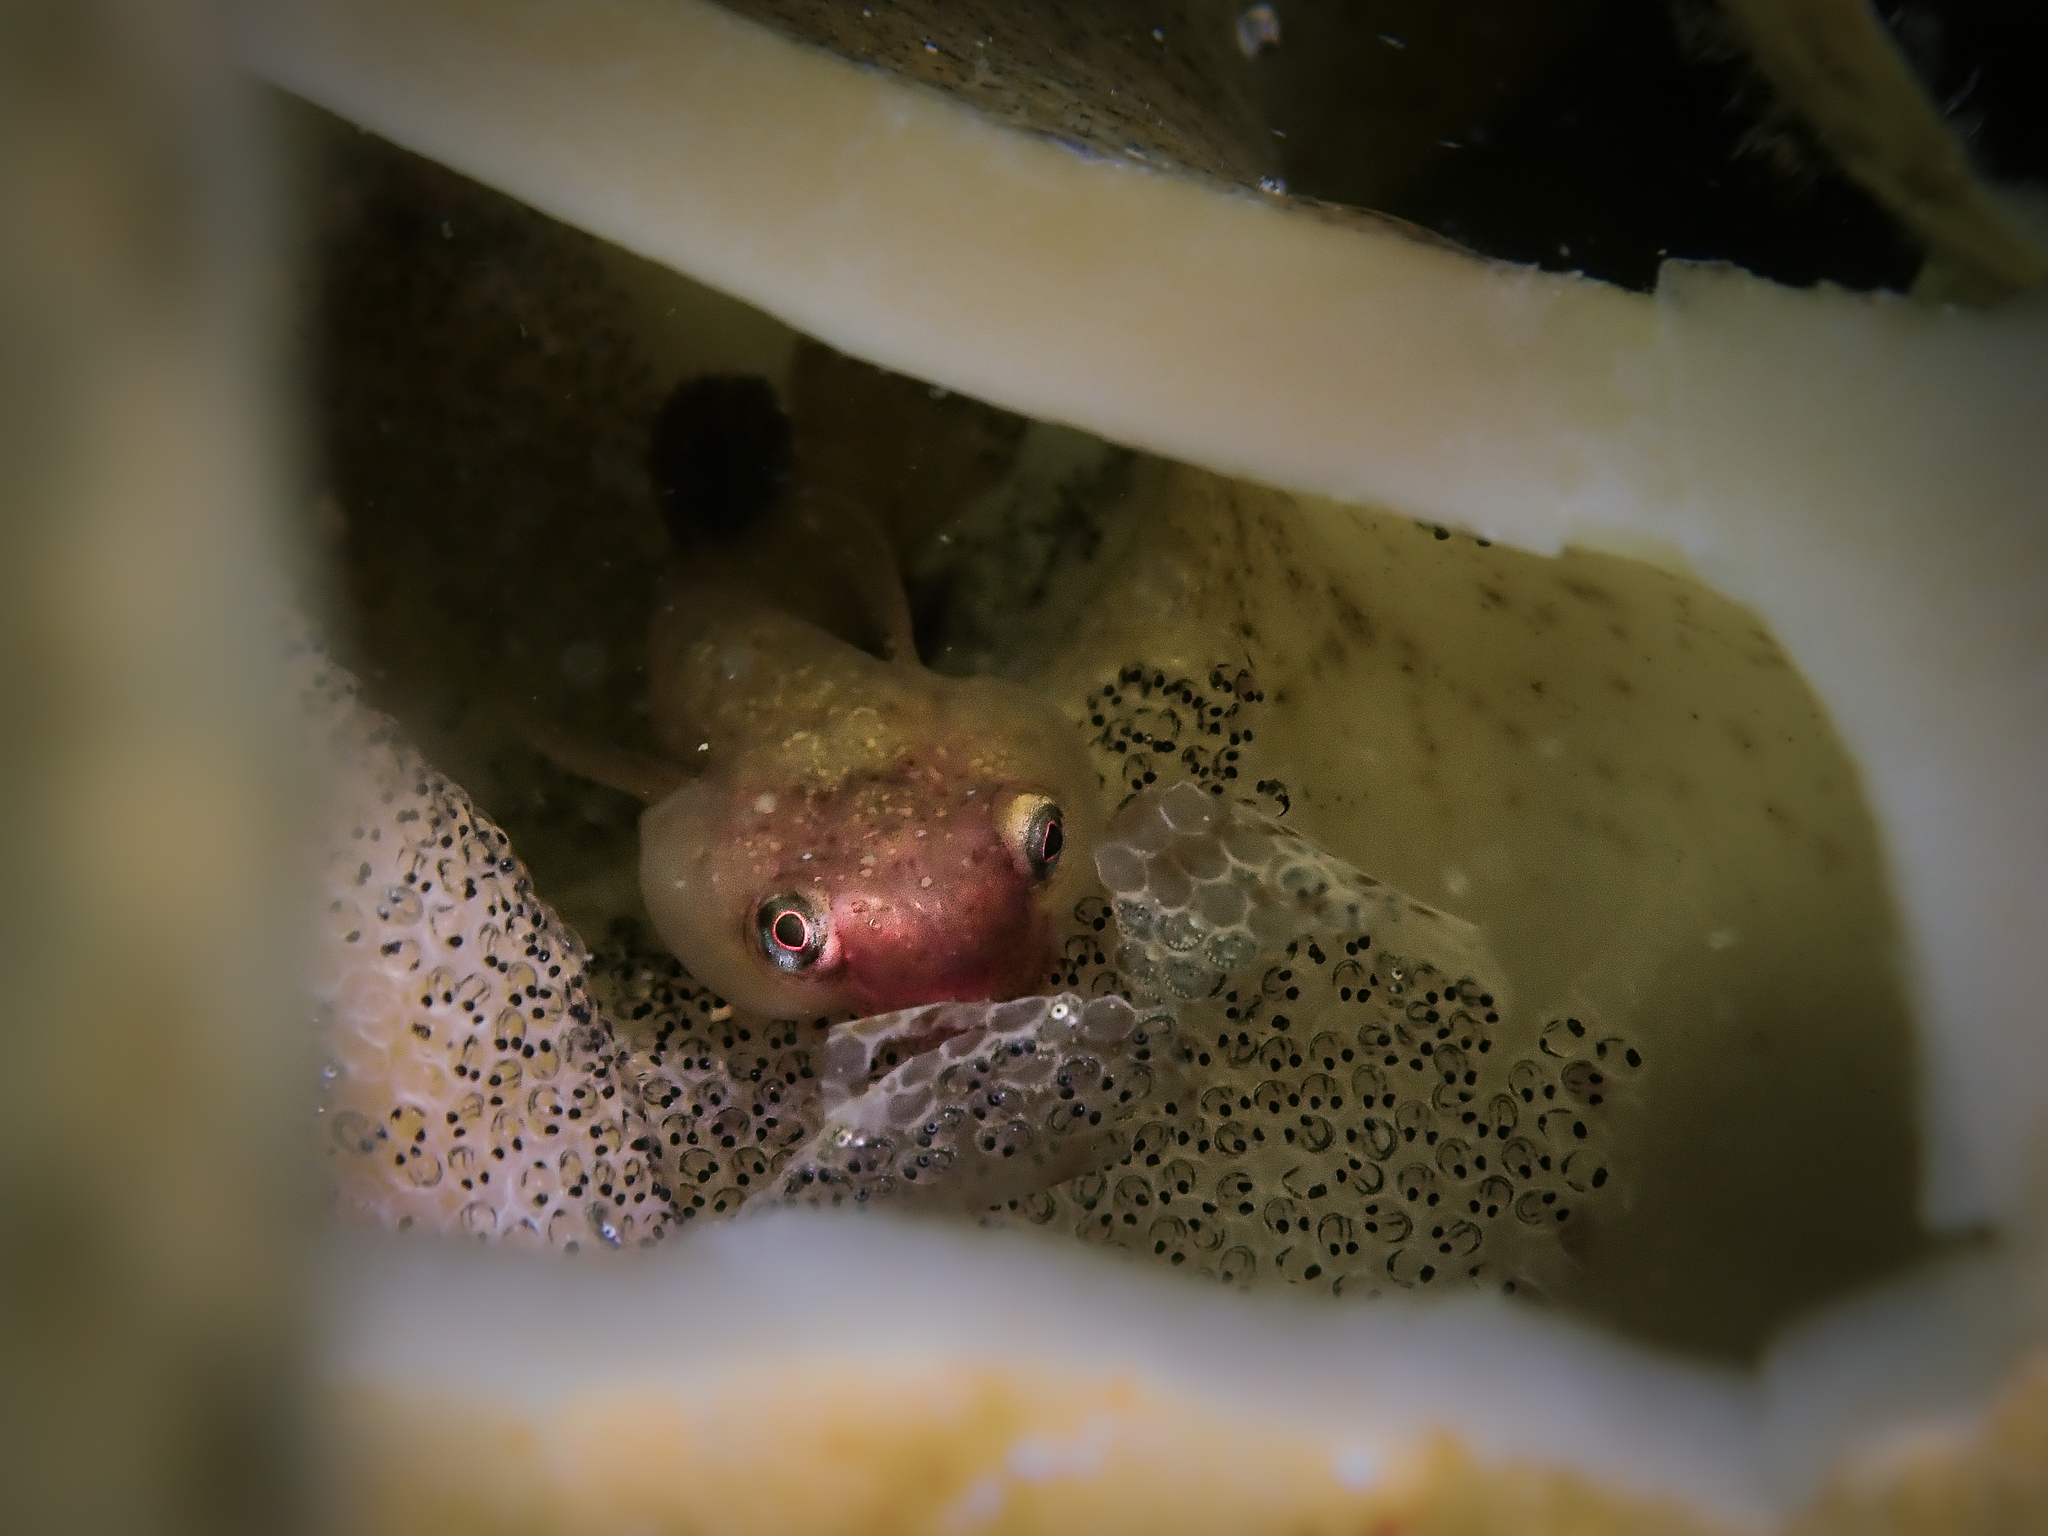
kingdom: Animalia
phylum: Chordata
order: Gobiesociformes
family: Gobiesocidae
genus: Apletodon
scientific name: Apletodon dentatus
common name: Small-headed clingfish
